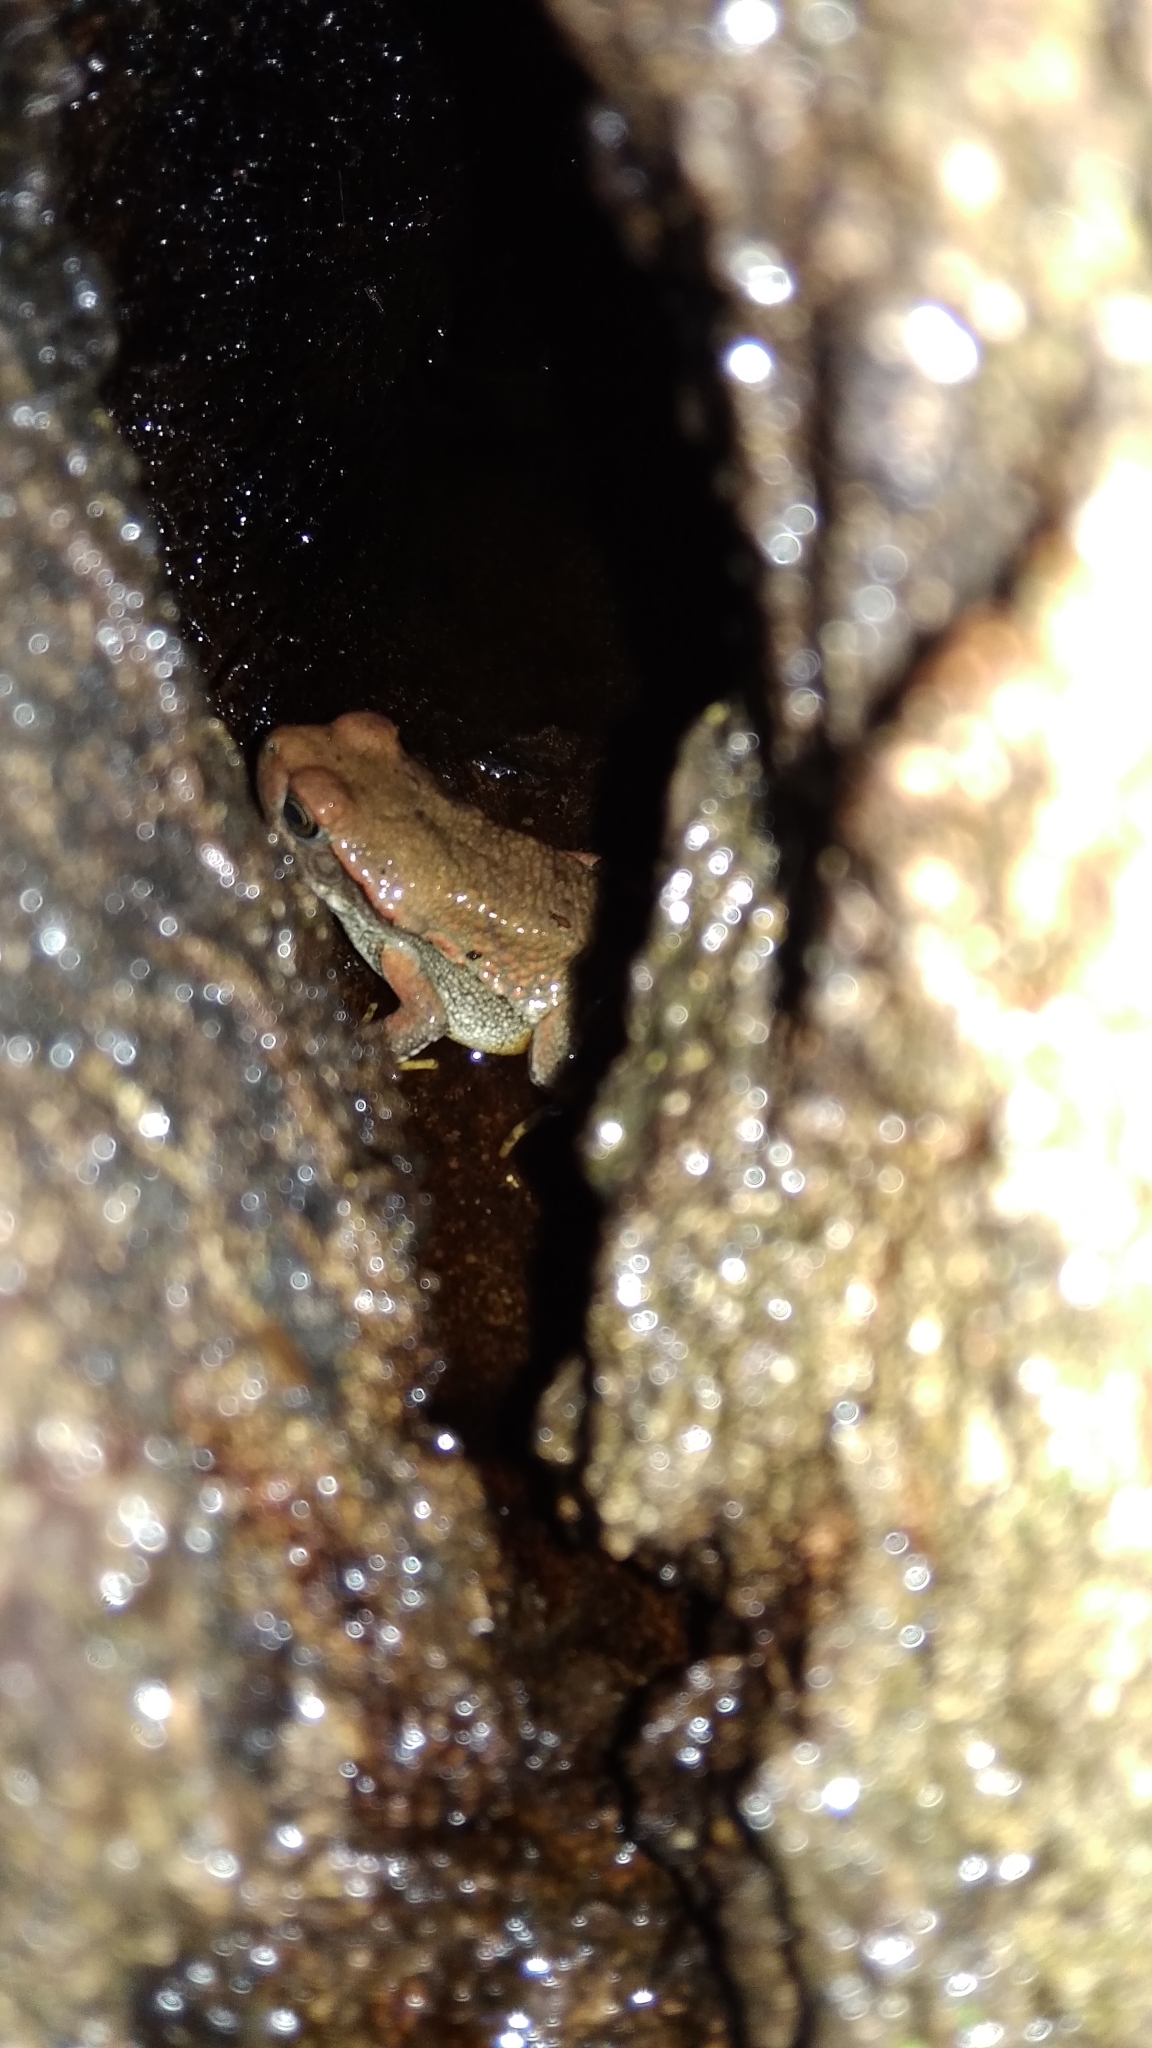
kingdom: Animalia
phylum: Chordata
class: Amphibia
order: Anura
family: Bufonidae
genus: Schismaderma
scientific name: Schismaderma carens
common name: African split-skin toad
